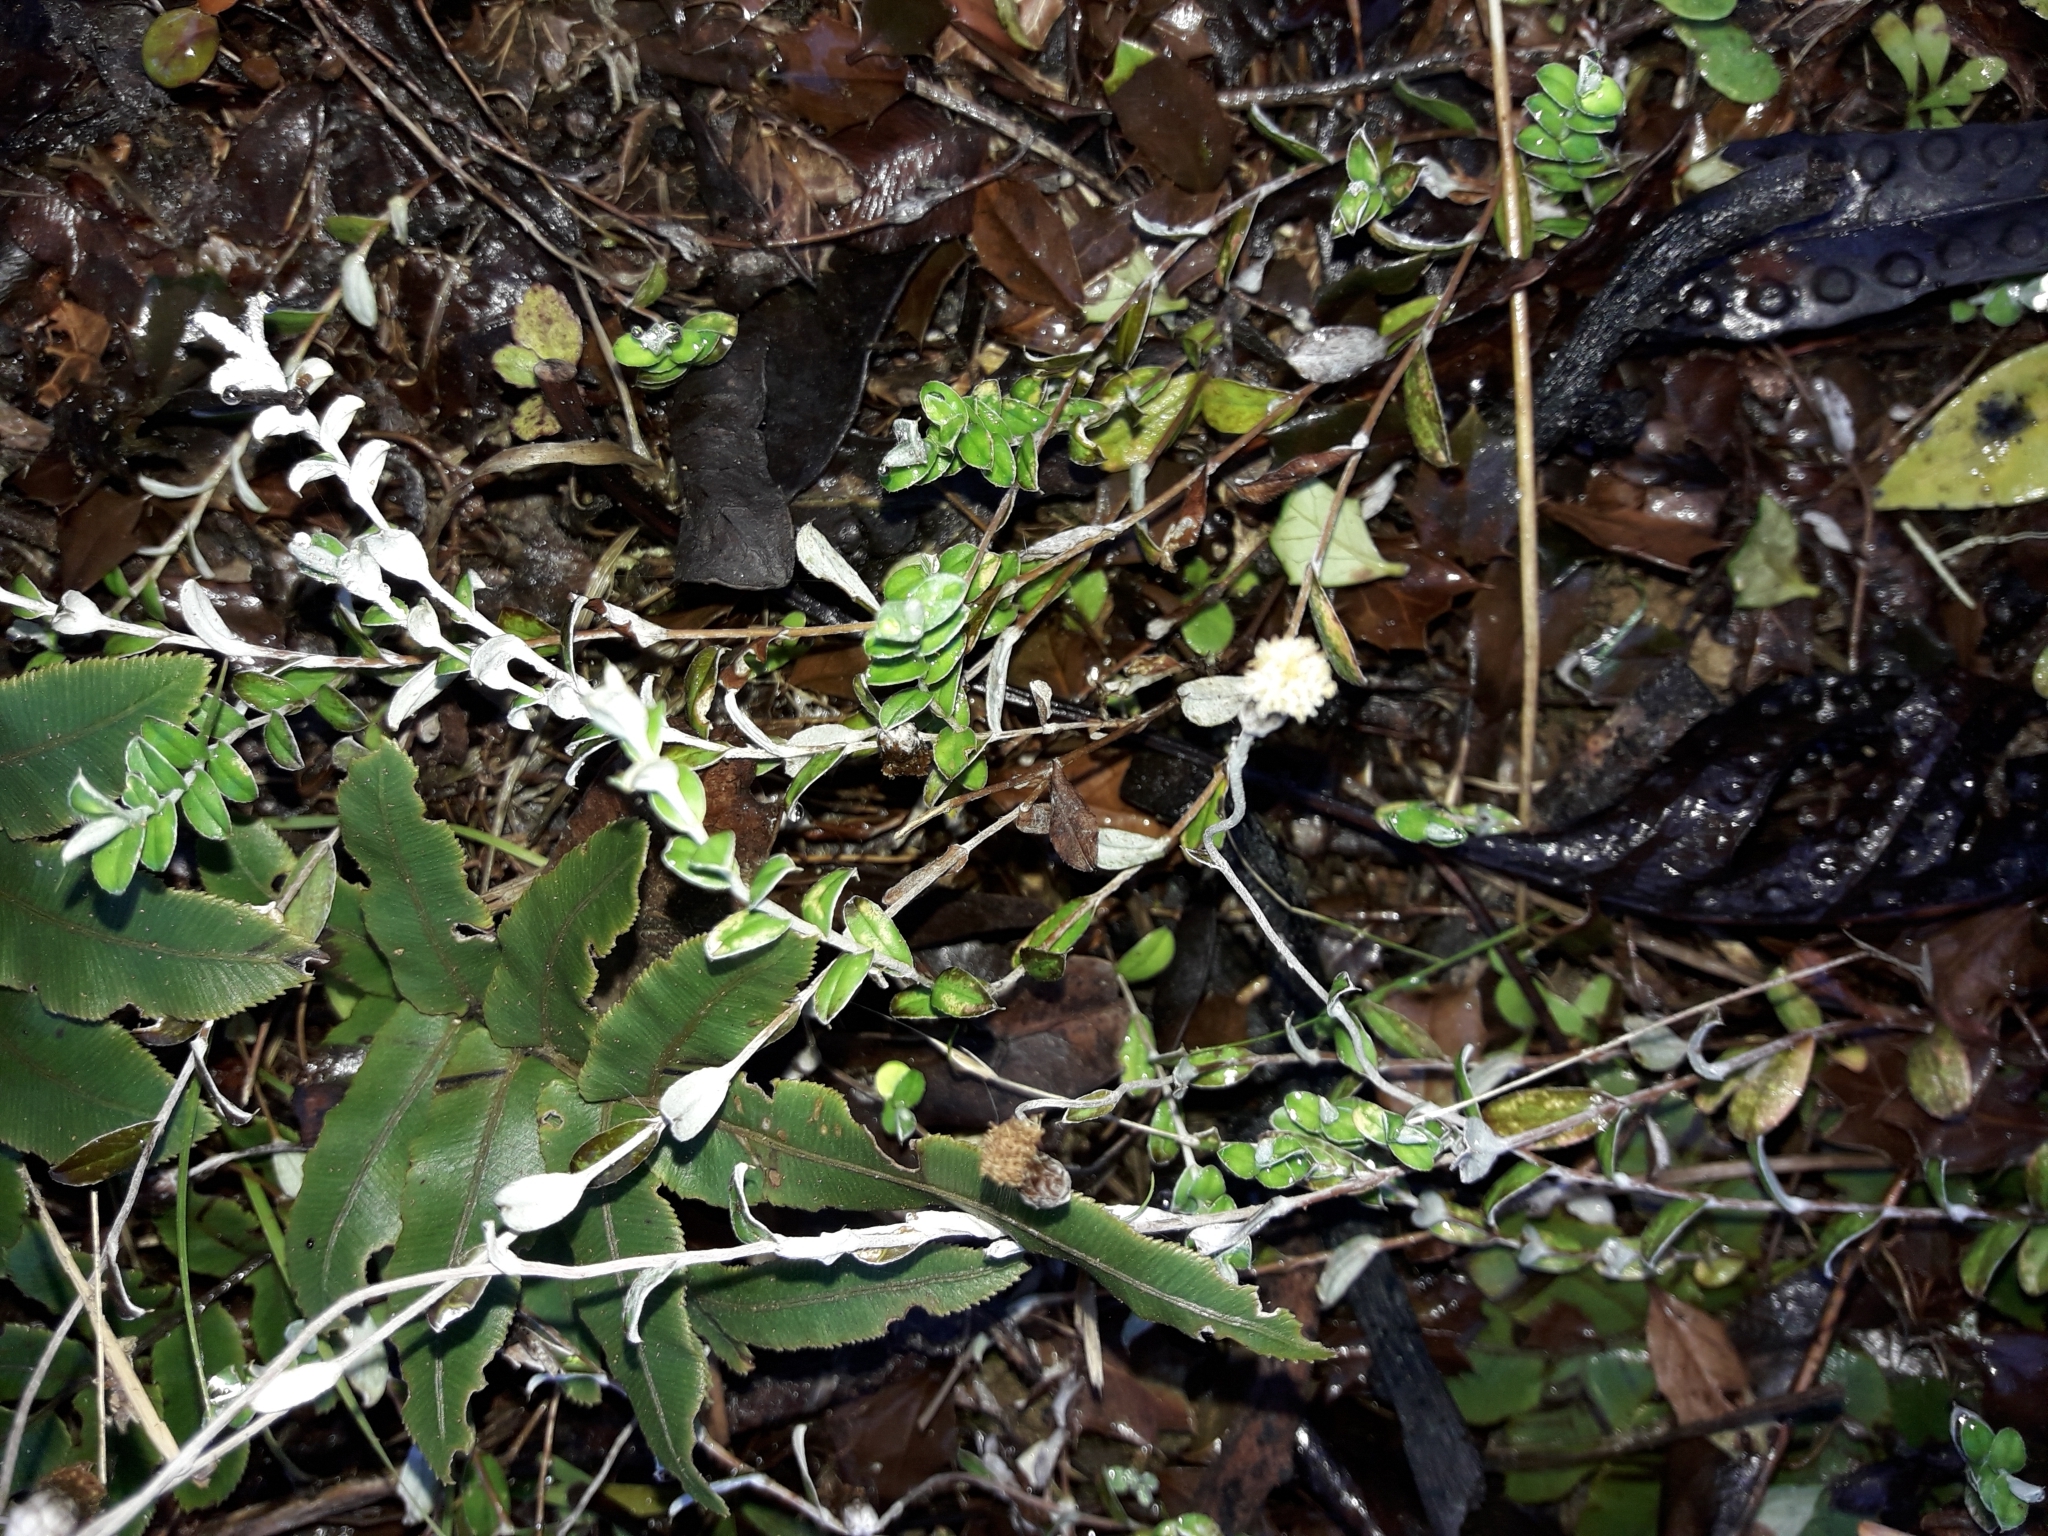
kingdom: Plantae
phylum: Tracheophyta
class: Magnoliopsida
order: Asterales
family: Asteraceae
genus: Helichrysum
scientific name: Helichrysum filicaule
